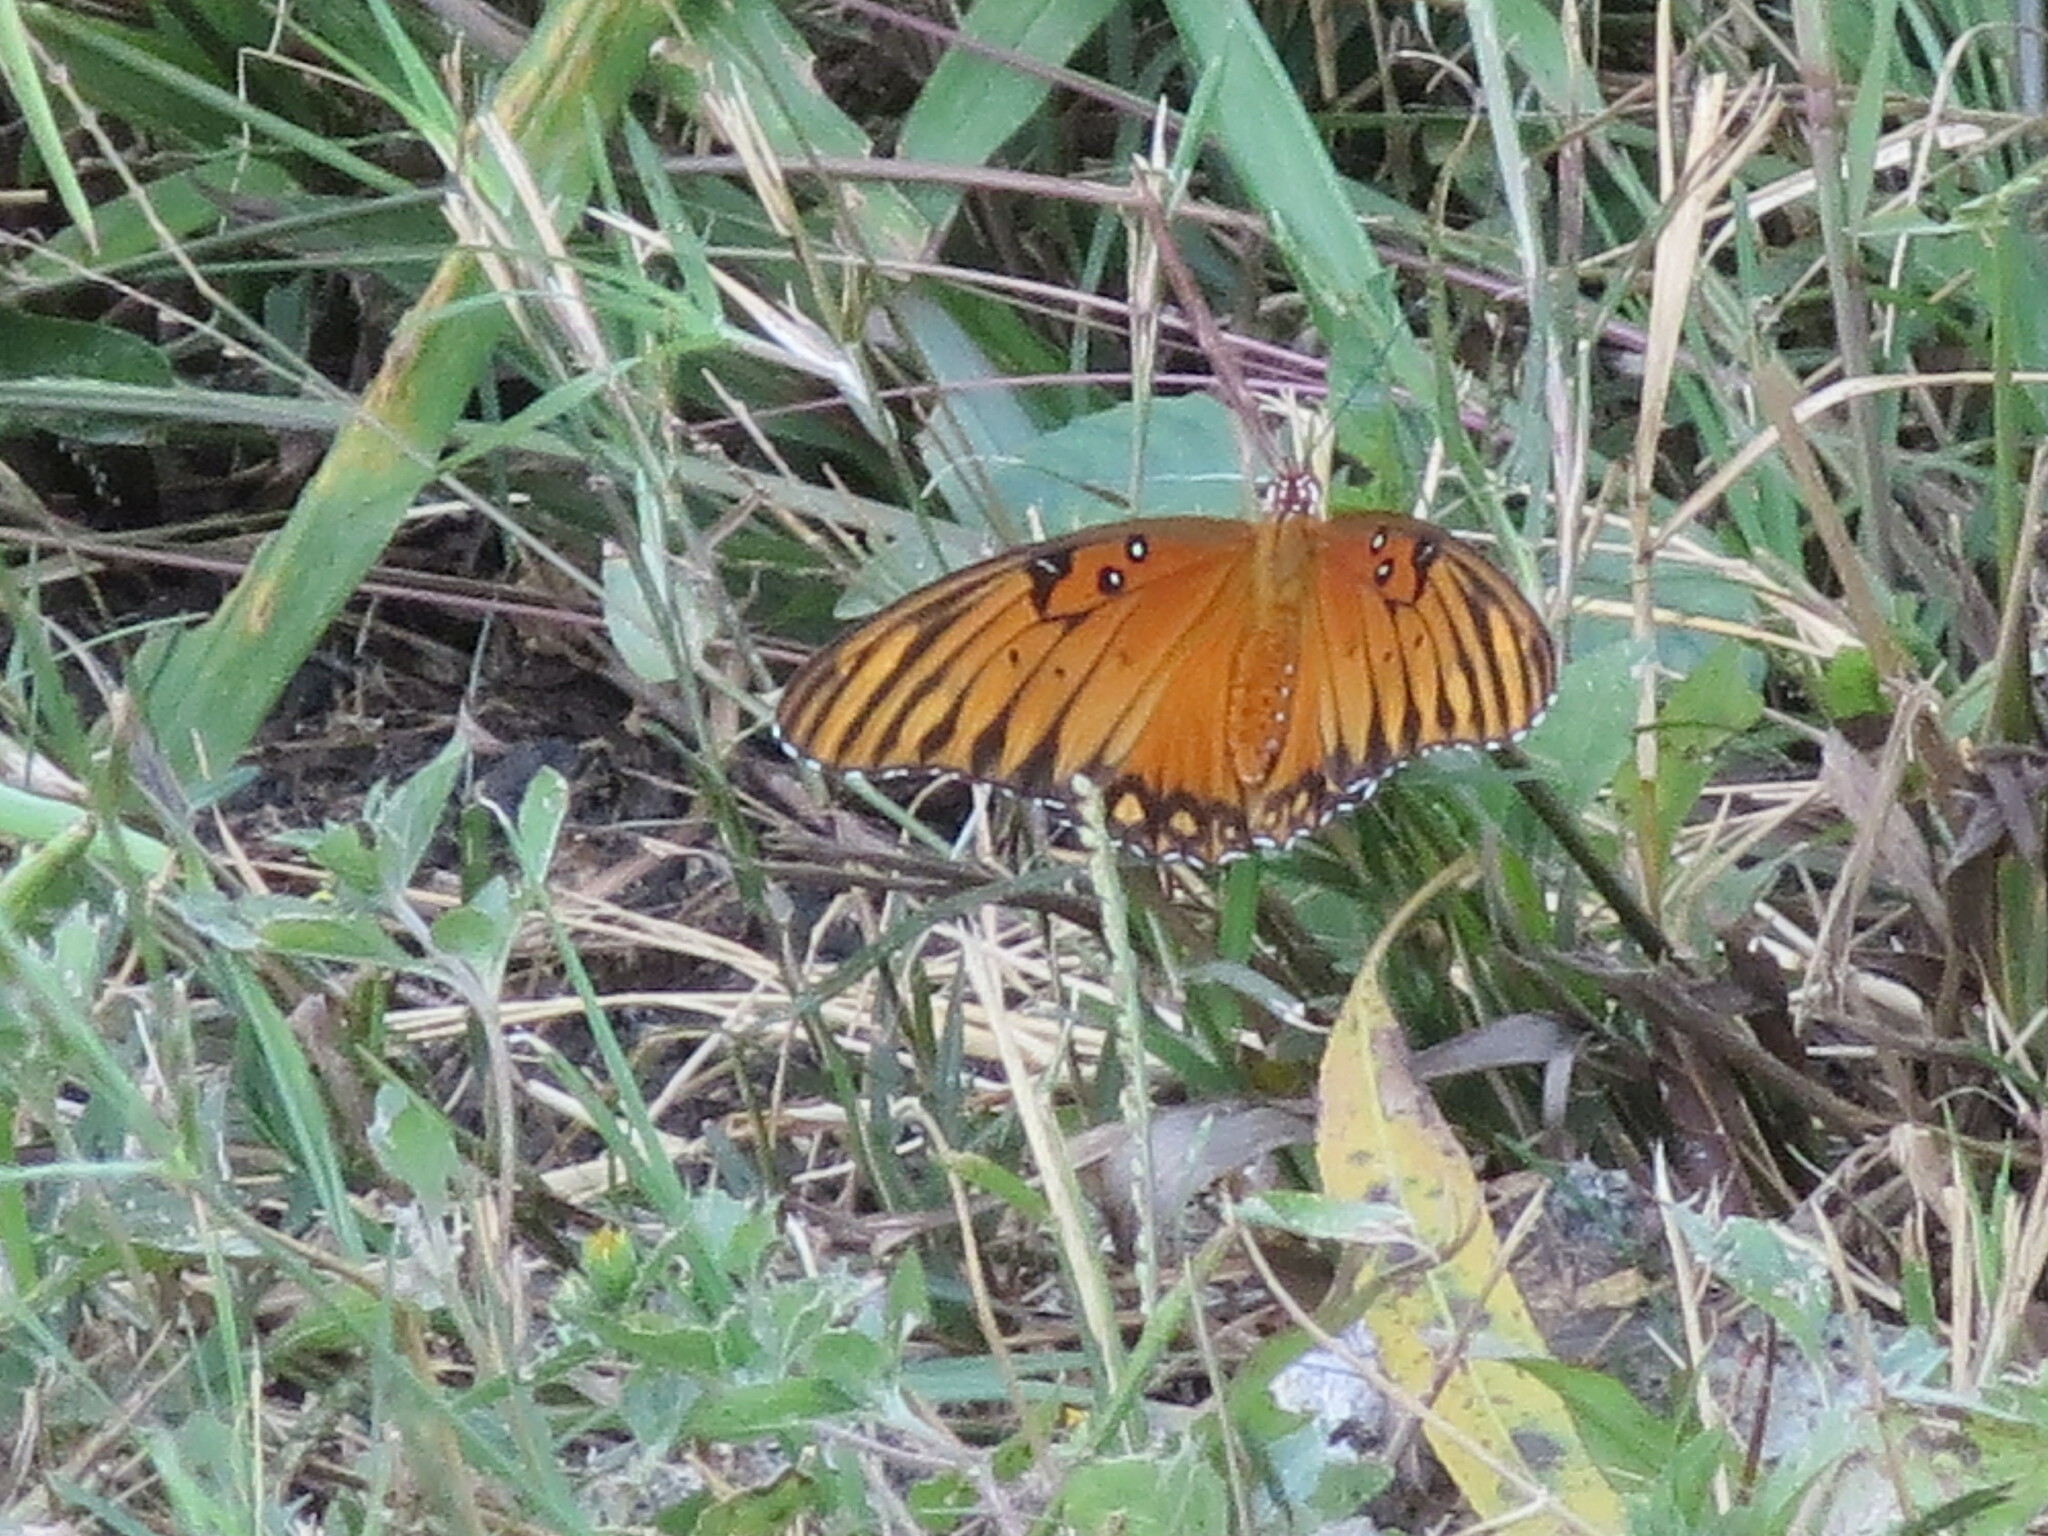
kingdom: Animalia
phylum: Arthropoda
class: Insecta
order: Lepidoptera
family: Nymphalidae
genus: Dione
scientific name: Dione vanillae
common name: Gulf fritillary
